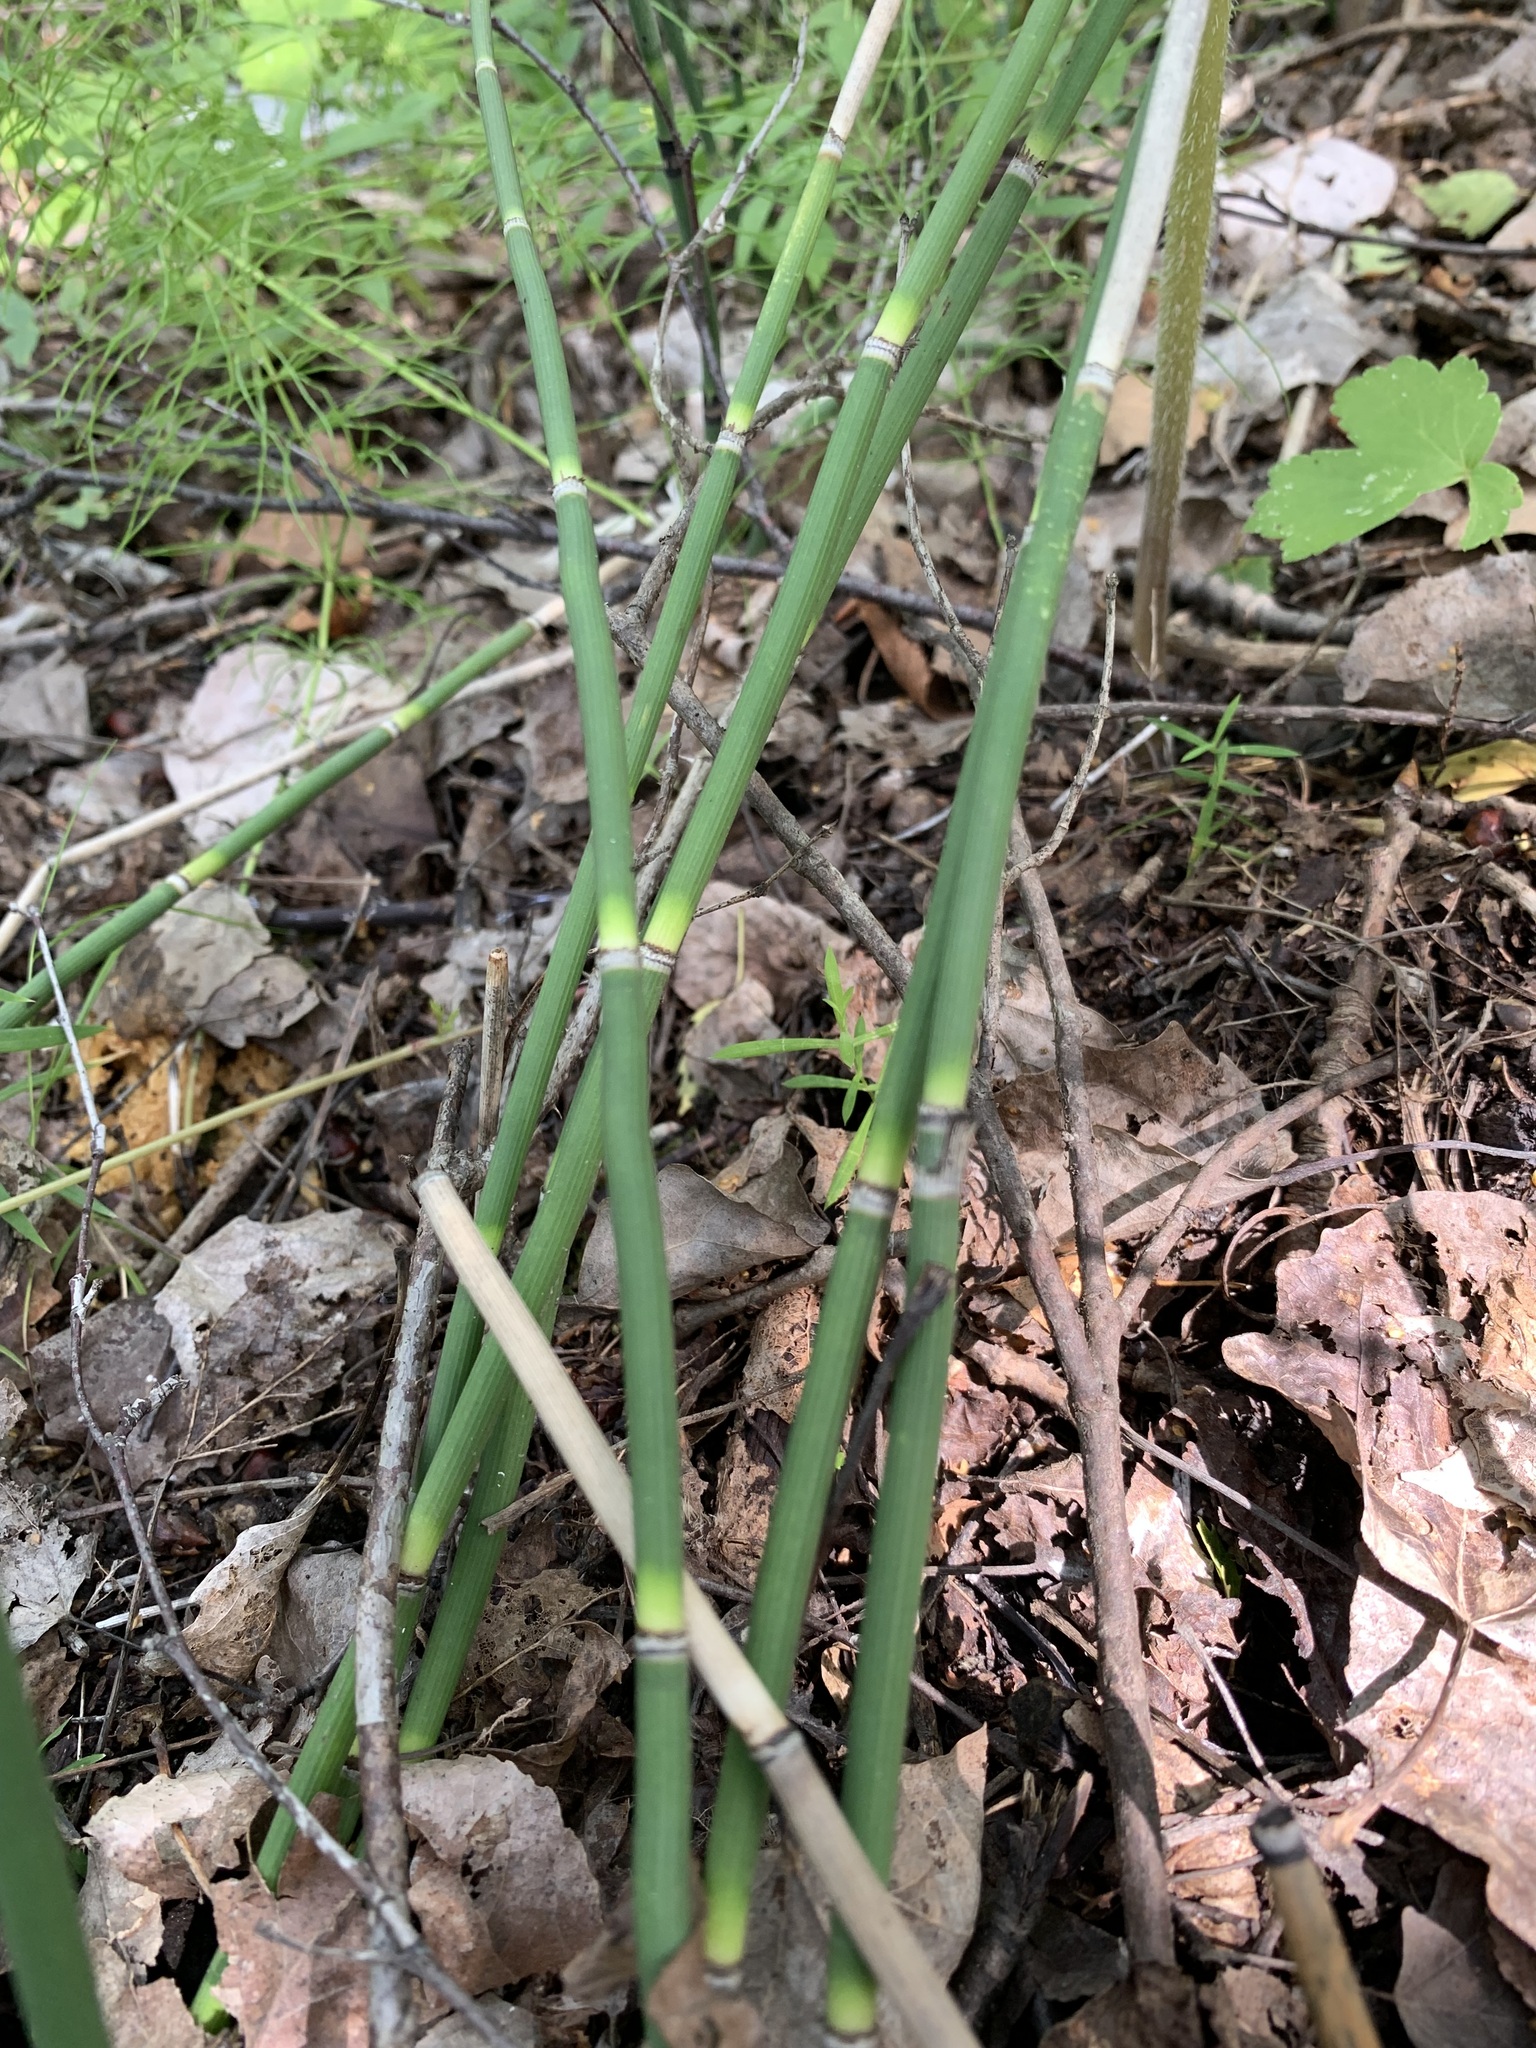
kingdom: Plantae
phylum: Tracheophyta
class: Polypodiopsida
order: Equisetales
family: Equisetaceae
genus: Equisetum
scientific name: Equisetum hyemale
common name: Rough horsetail
